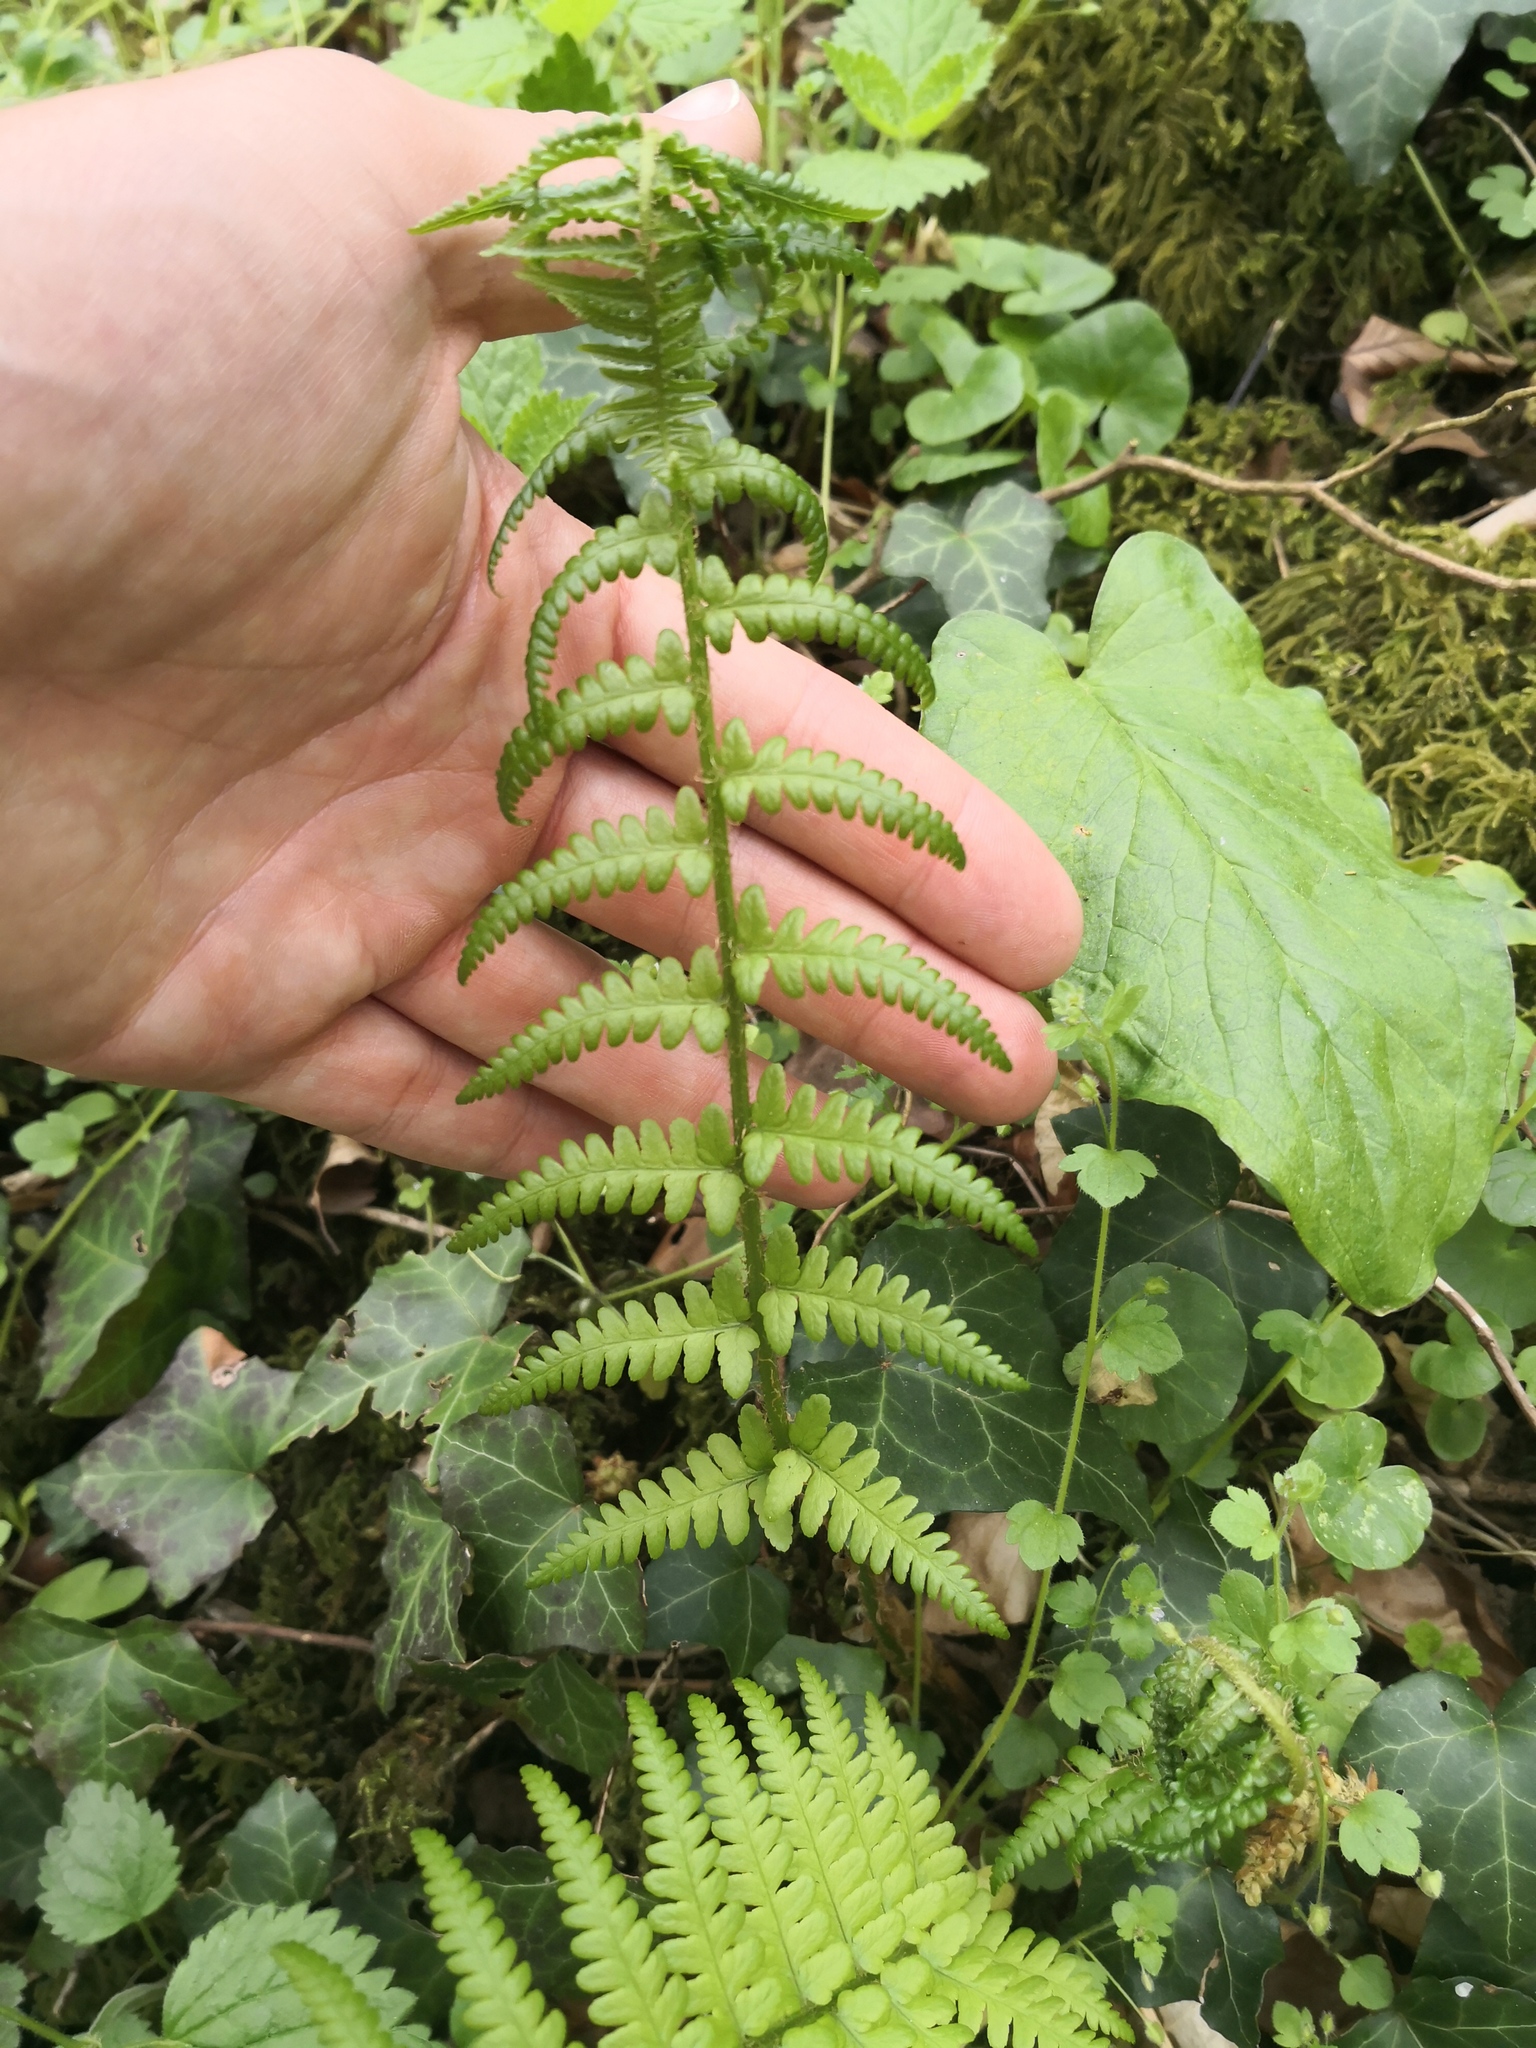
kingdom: Plantae
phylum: Tracheophyta
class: Polypodiopsida
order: Polypodiales
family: Dryopteridaceae
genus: Dryopteris
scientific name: Dryopteris filix-mas
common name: Male fern
